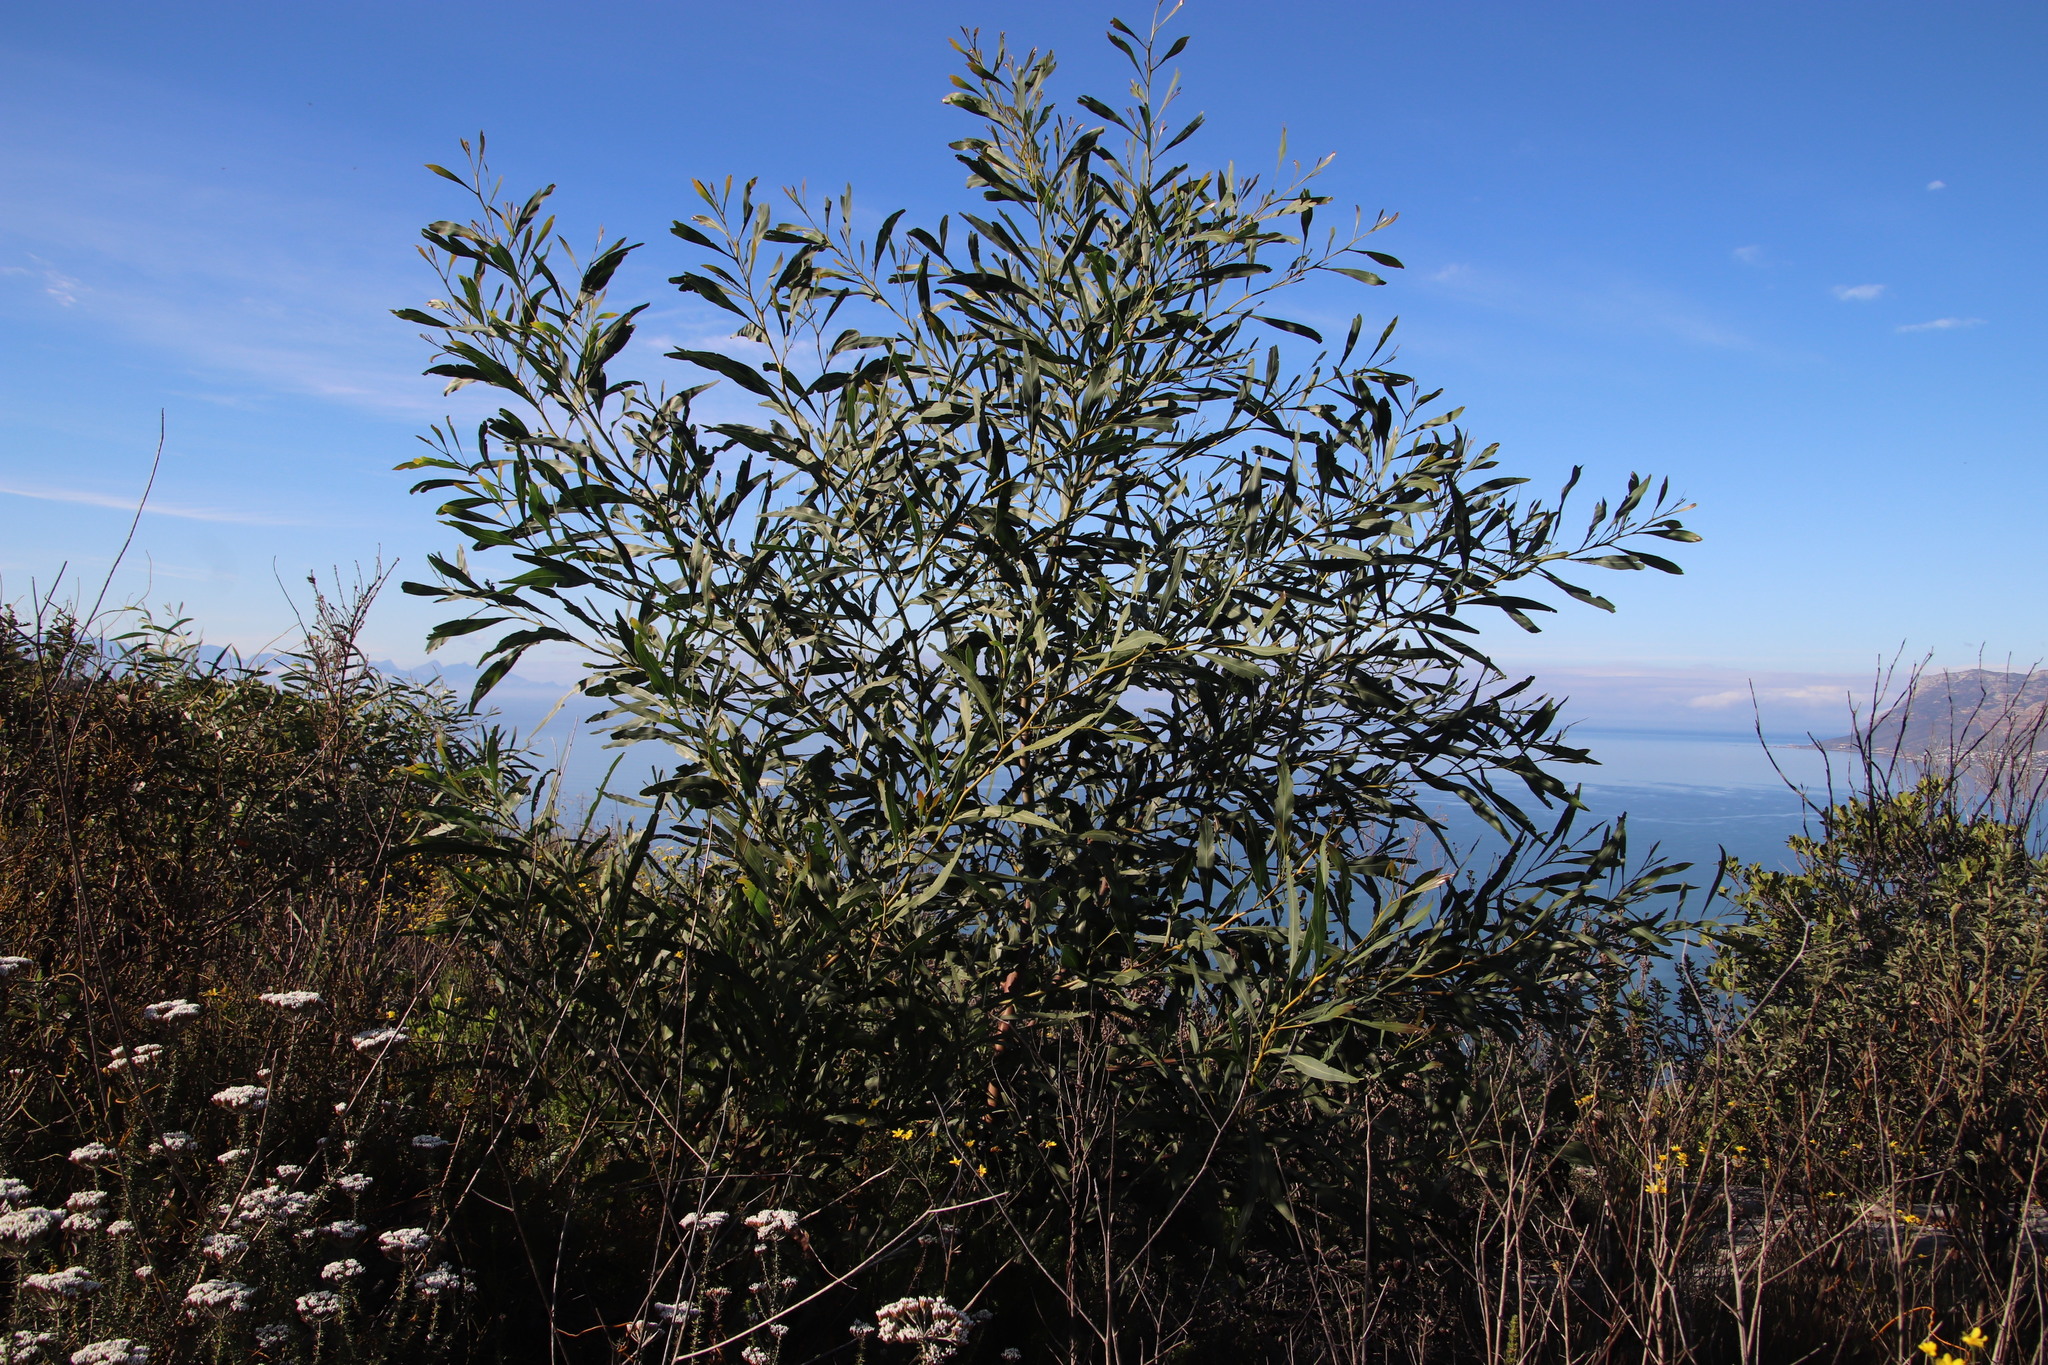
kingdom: Plantae
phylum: Tracheophyta
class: Magnoliopsida
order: Fabales
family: Fabaceae
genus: Acacia
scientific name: Acacia saligna
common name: Orange wattle
